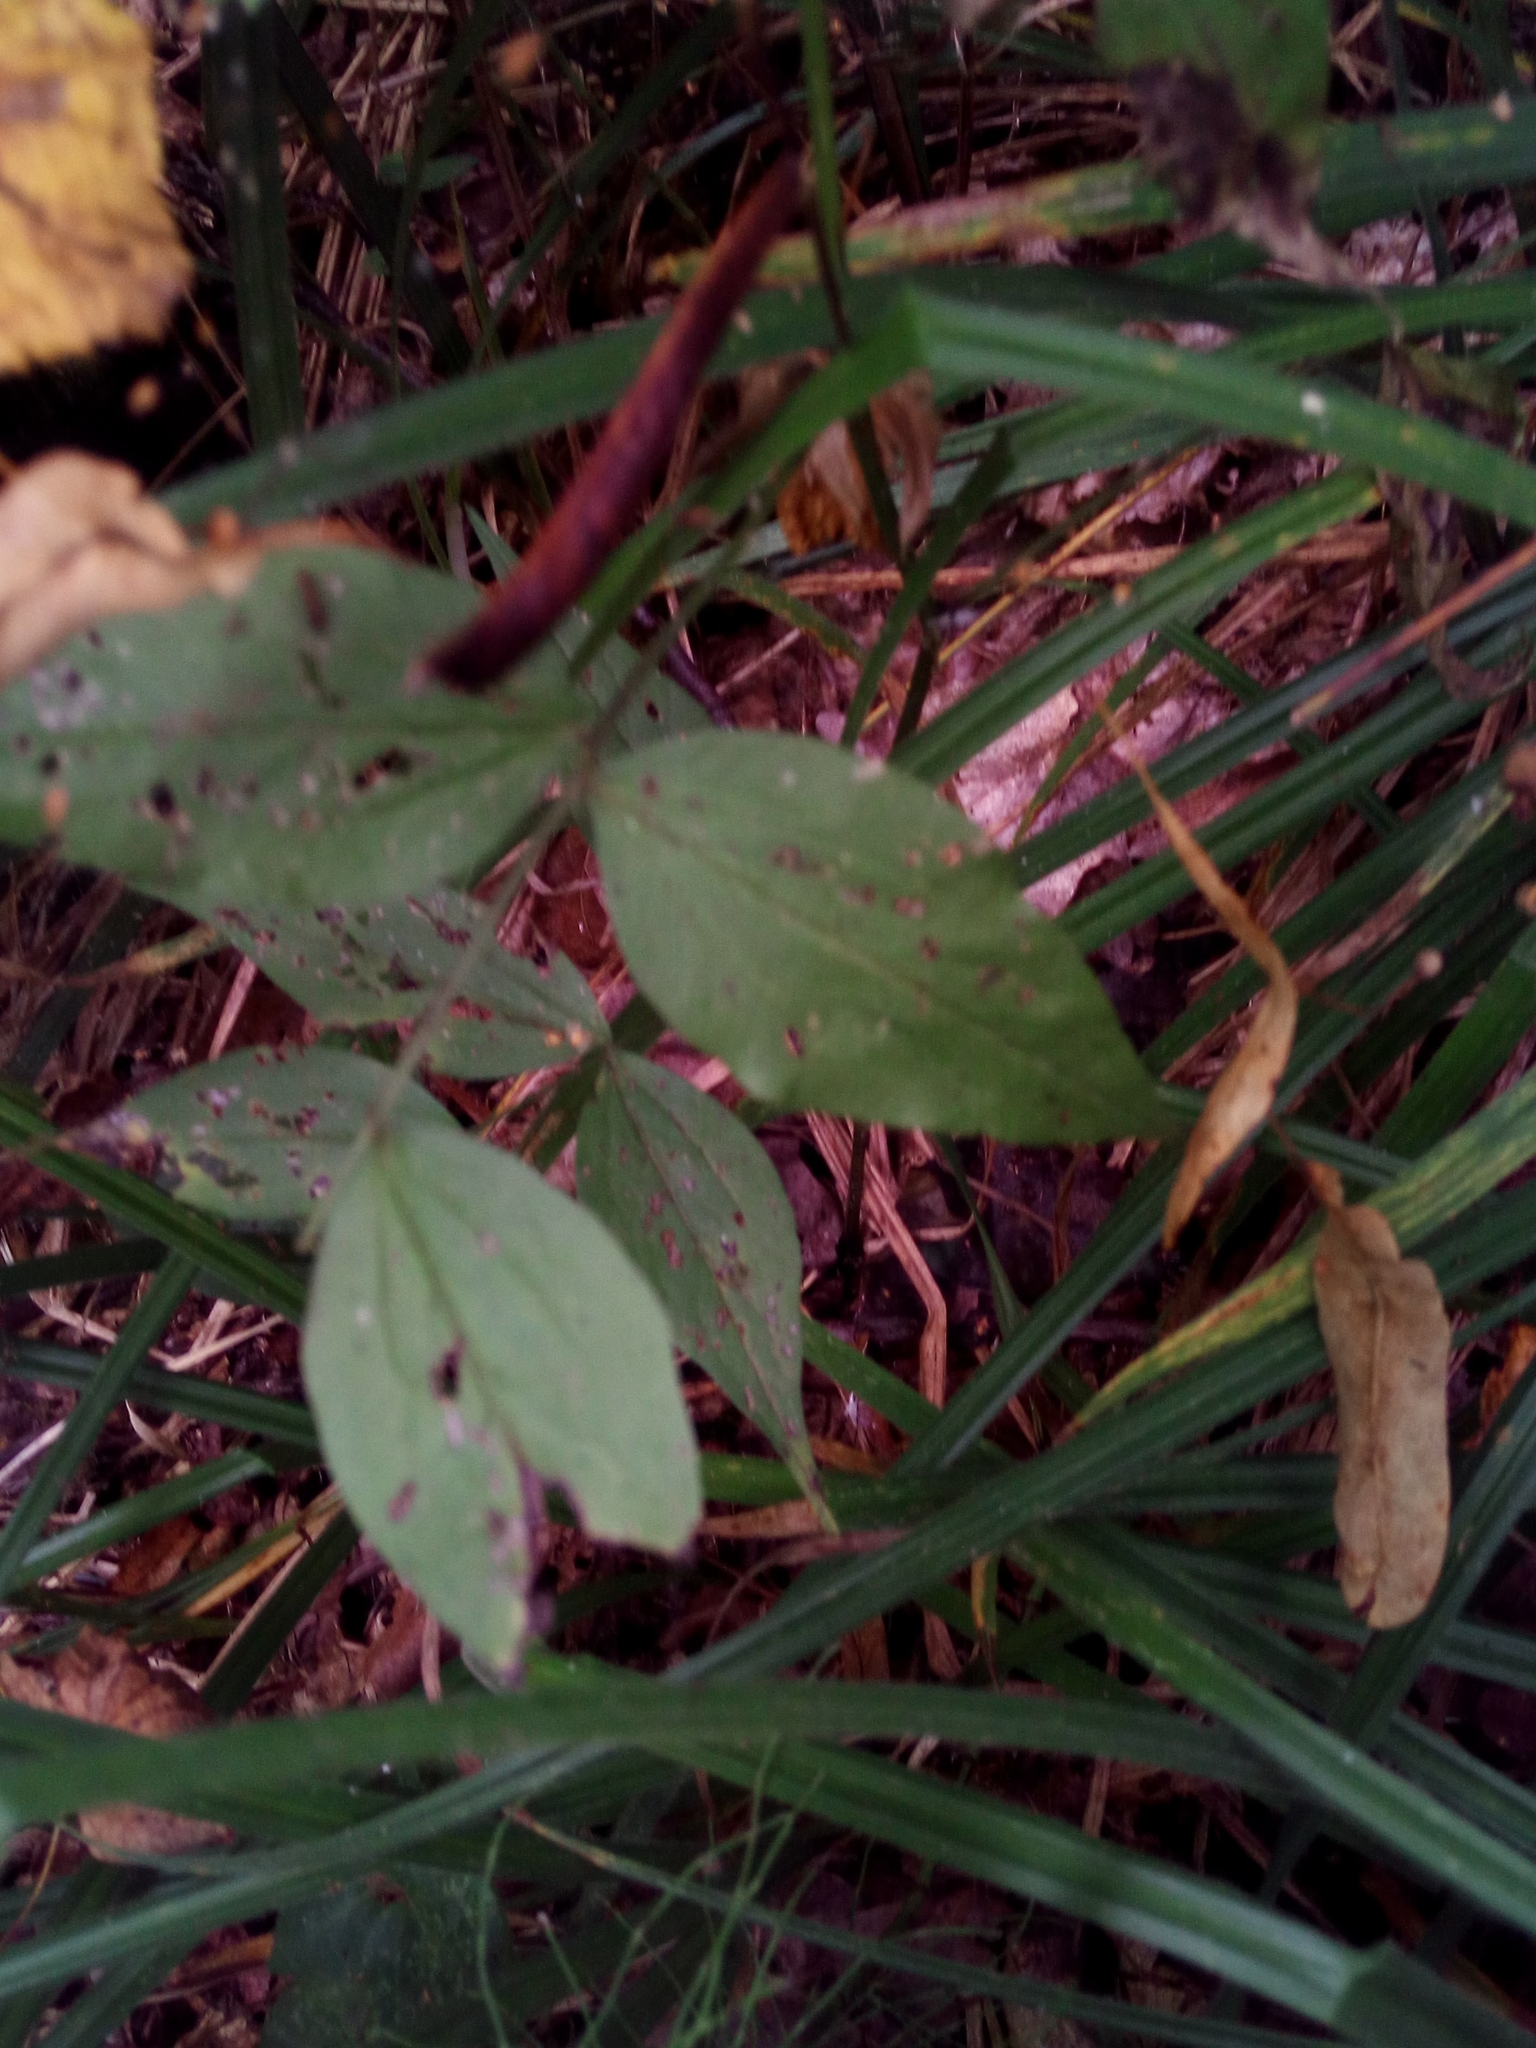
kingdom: Plantae
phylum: Tracheophyta
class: Magnoliopsida
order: Fabales
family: Fabaceae
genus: Lathyrus
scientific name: Lathyrus vernus
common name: Spring pea
